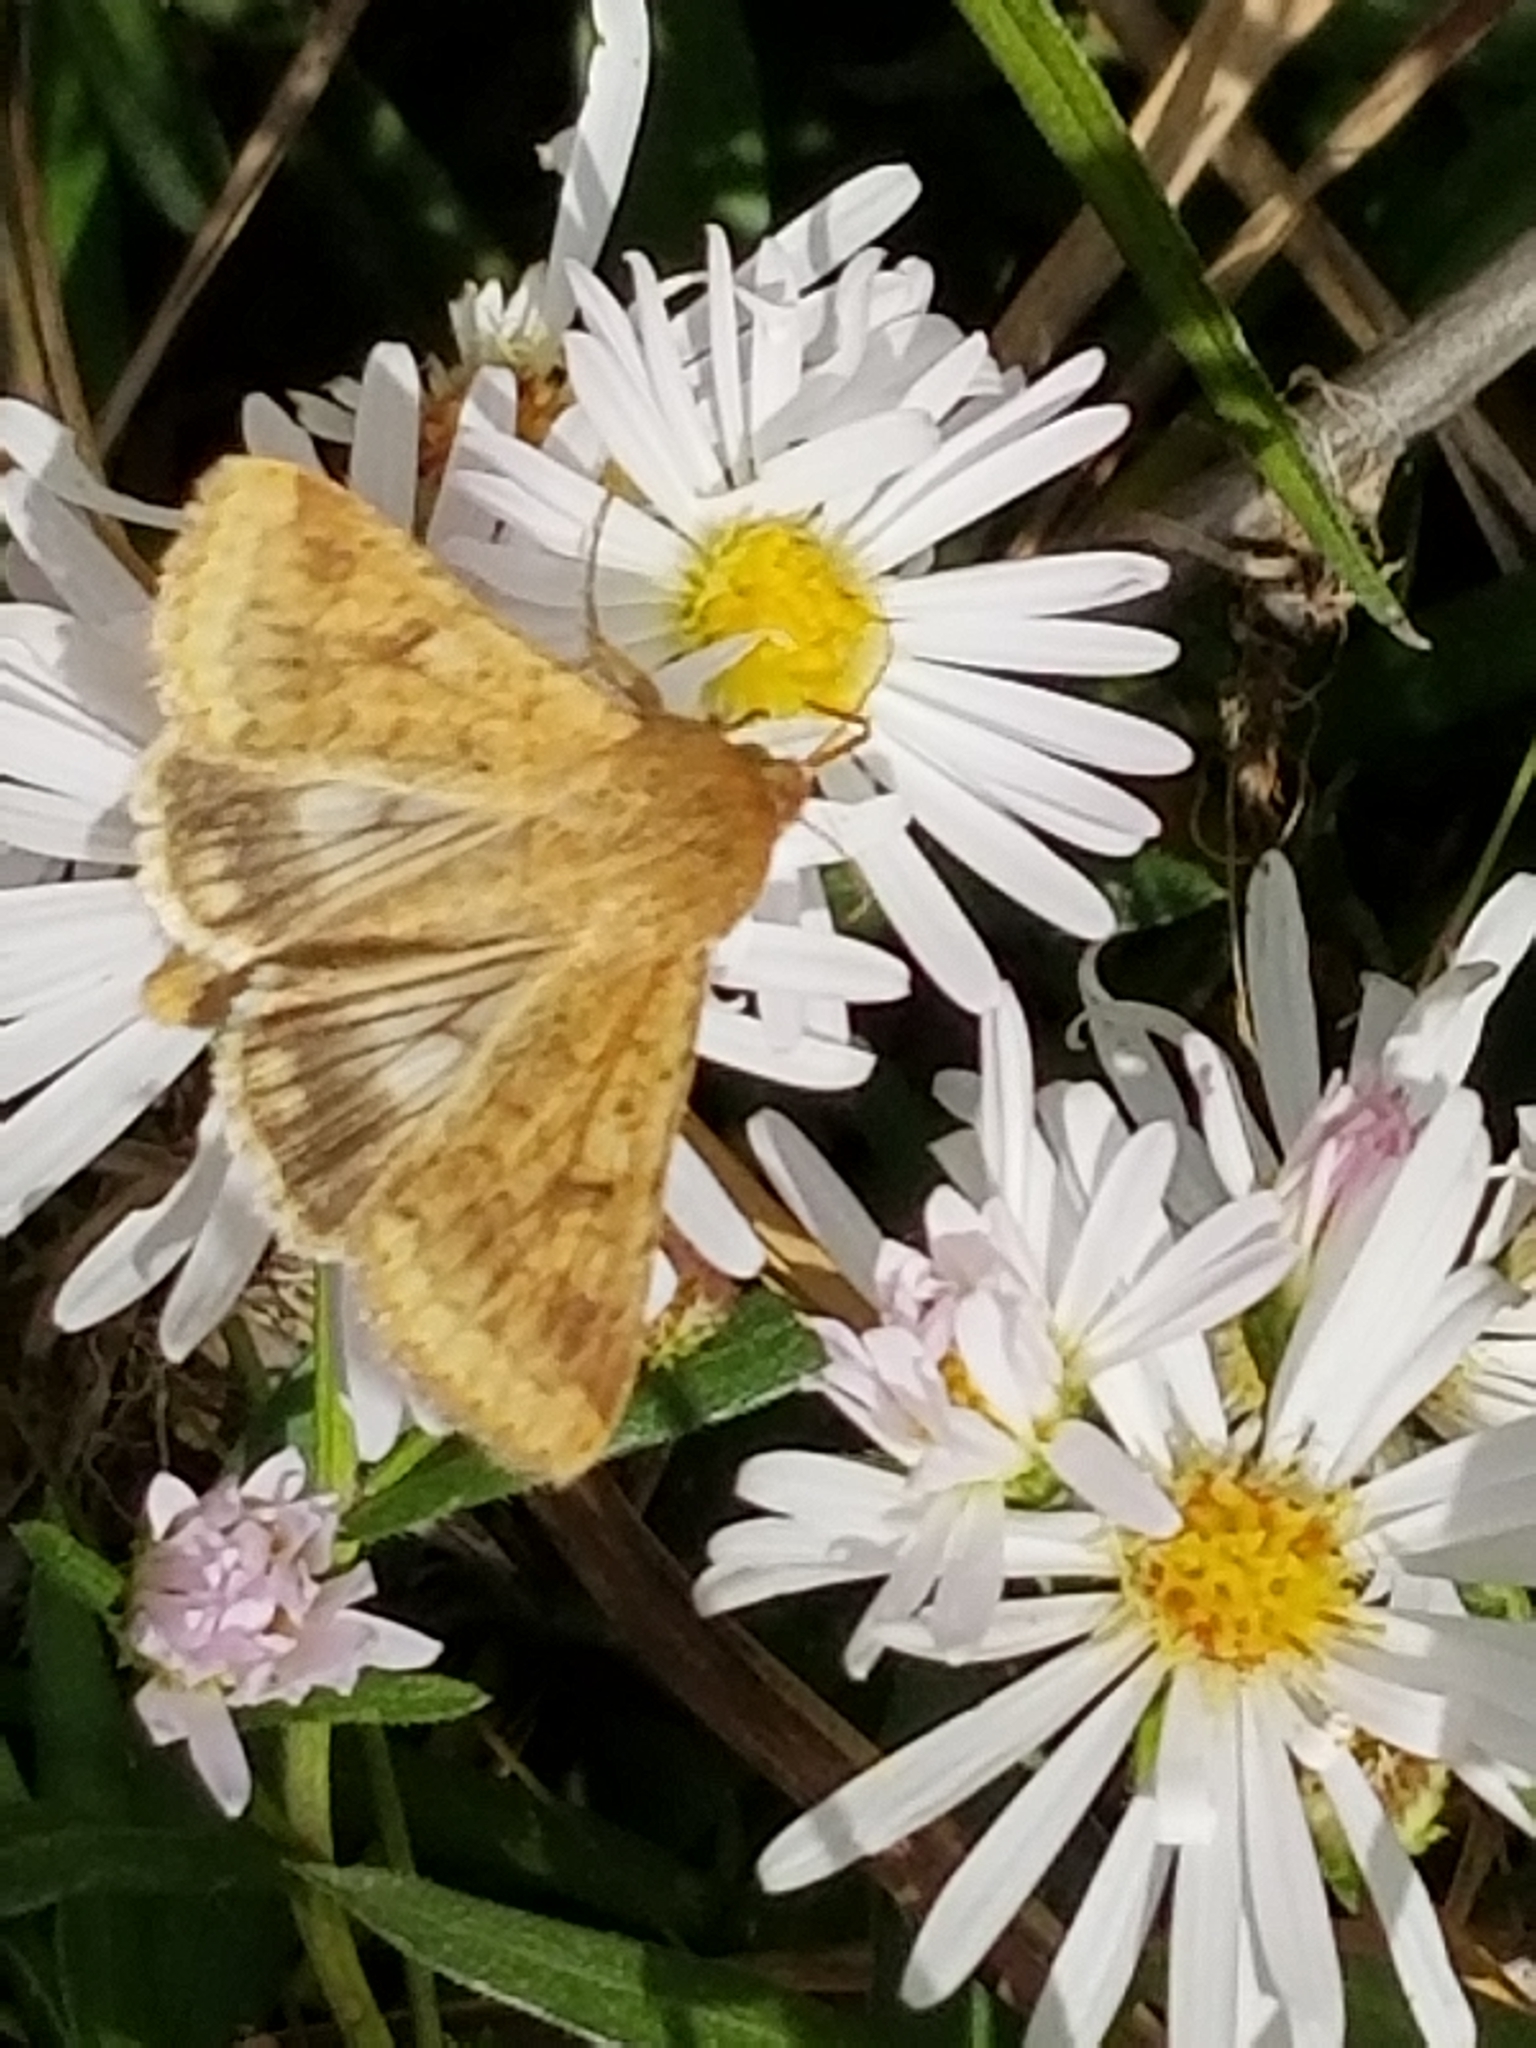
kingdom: Animalia
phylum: Arthropoda
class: Insecta
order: Lepidoptera
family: Noctuidae
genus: Helicoverpa
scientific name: Helicoverpa zea
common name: Bollworm
